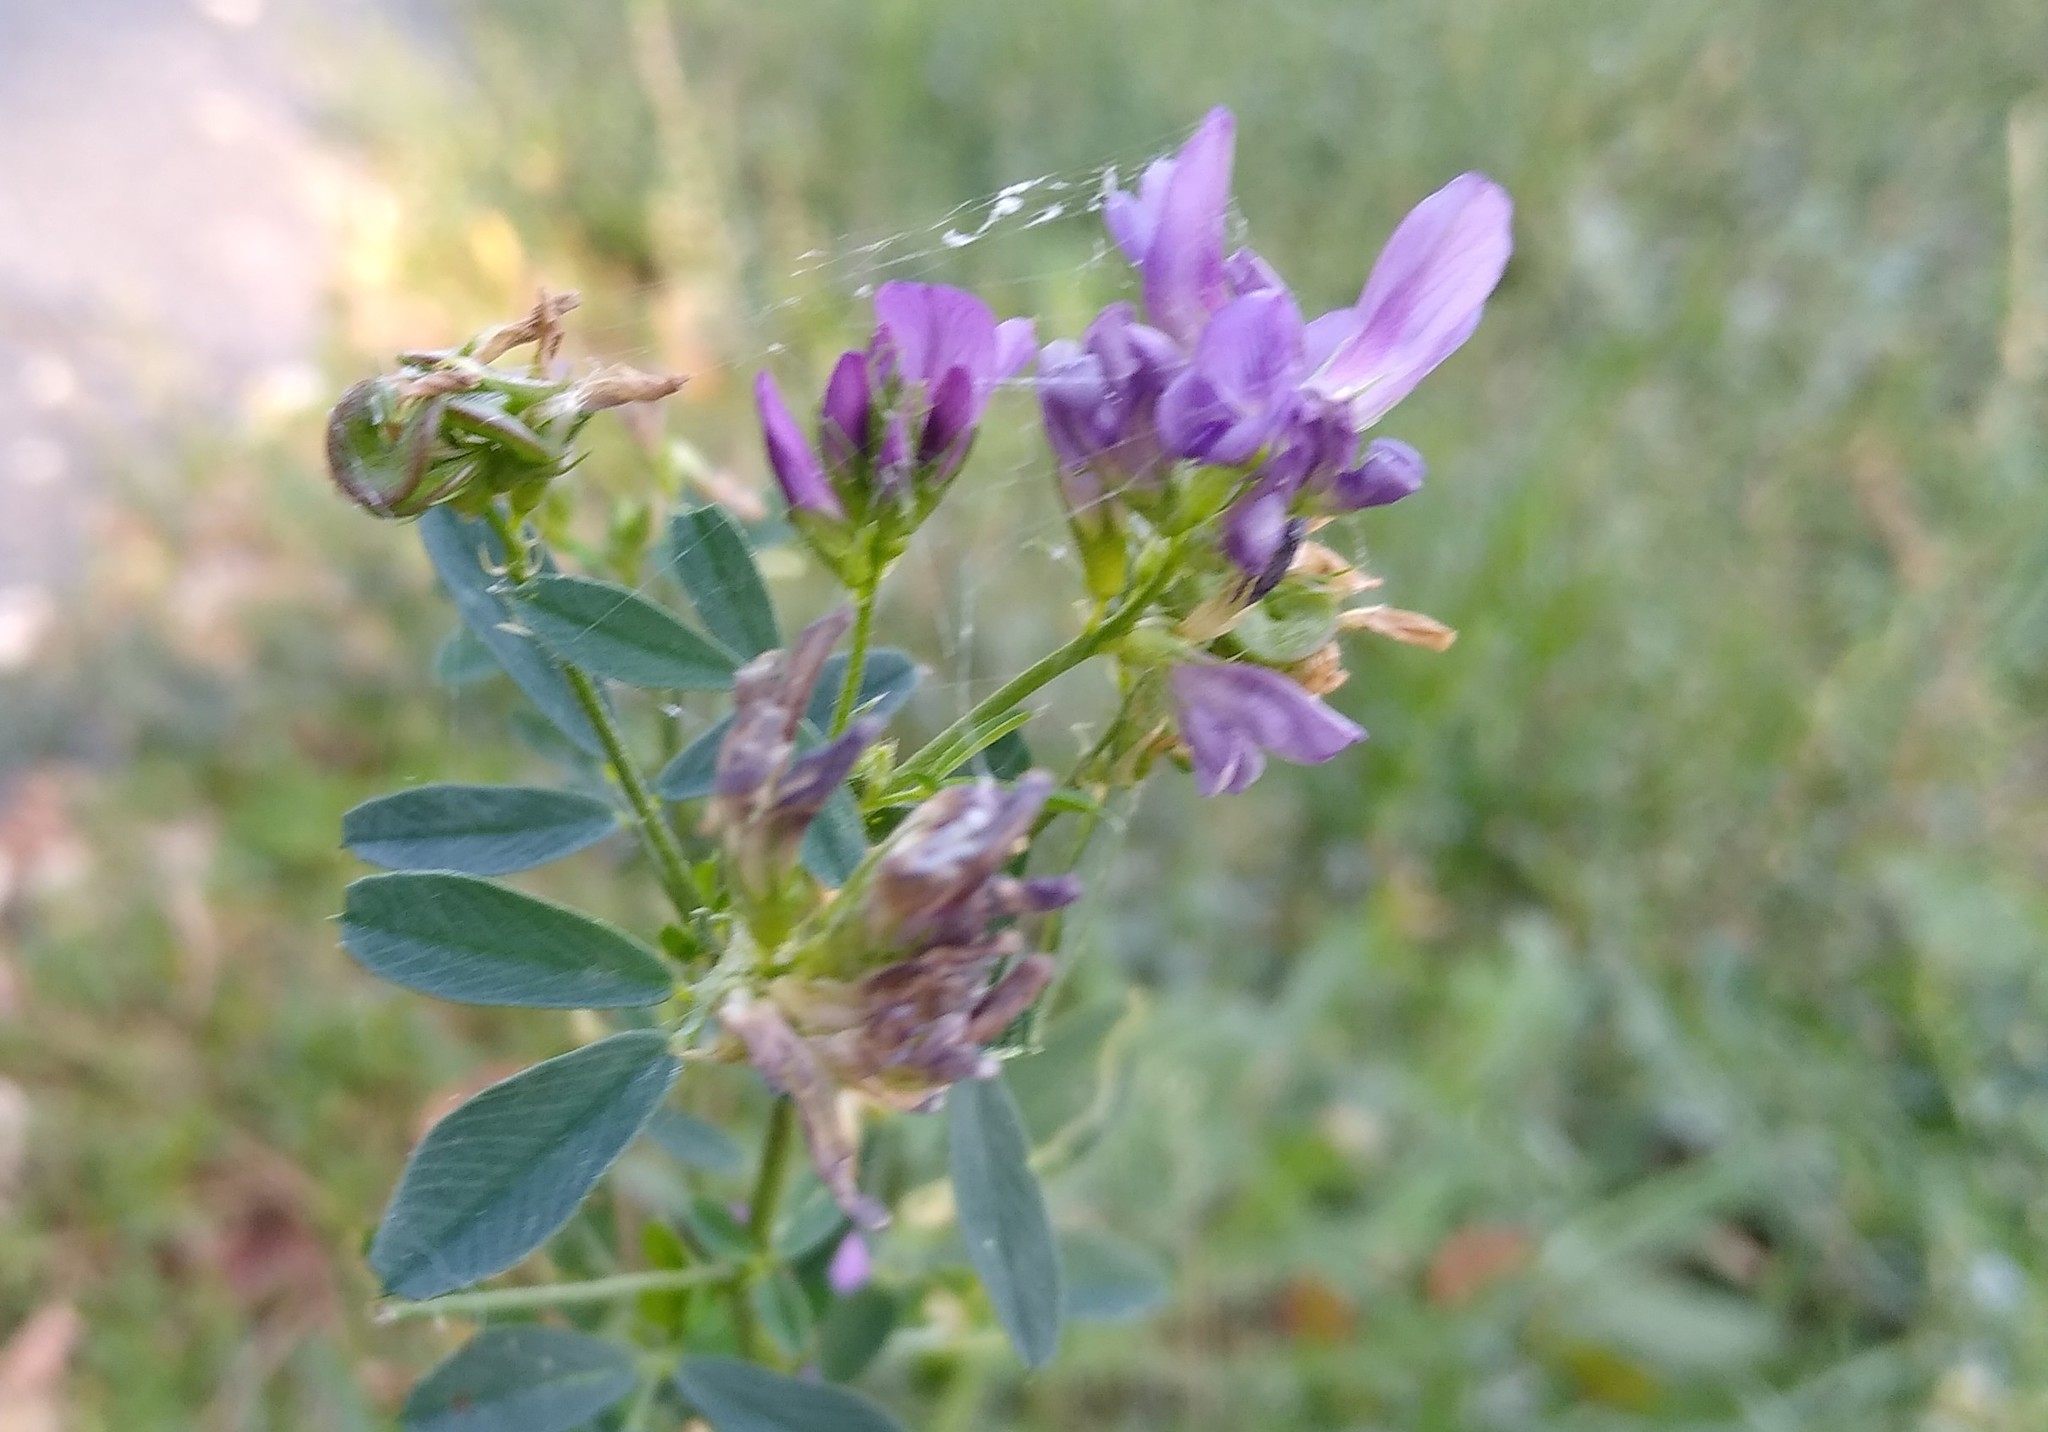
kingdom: Plantae
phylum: Tracheophyta
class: Magnoliopsida
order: Fabales
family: Fabaceae
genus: Medicago
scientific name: Medicago varia
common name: Sand lucerne
